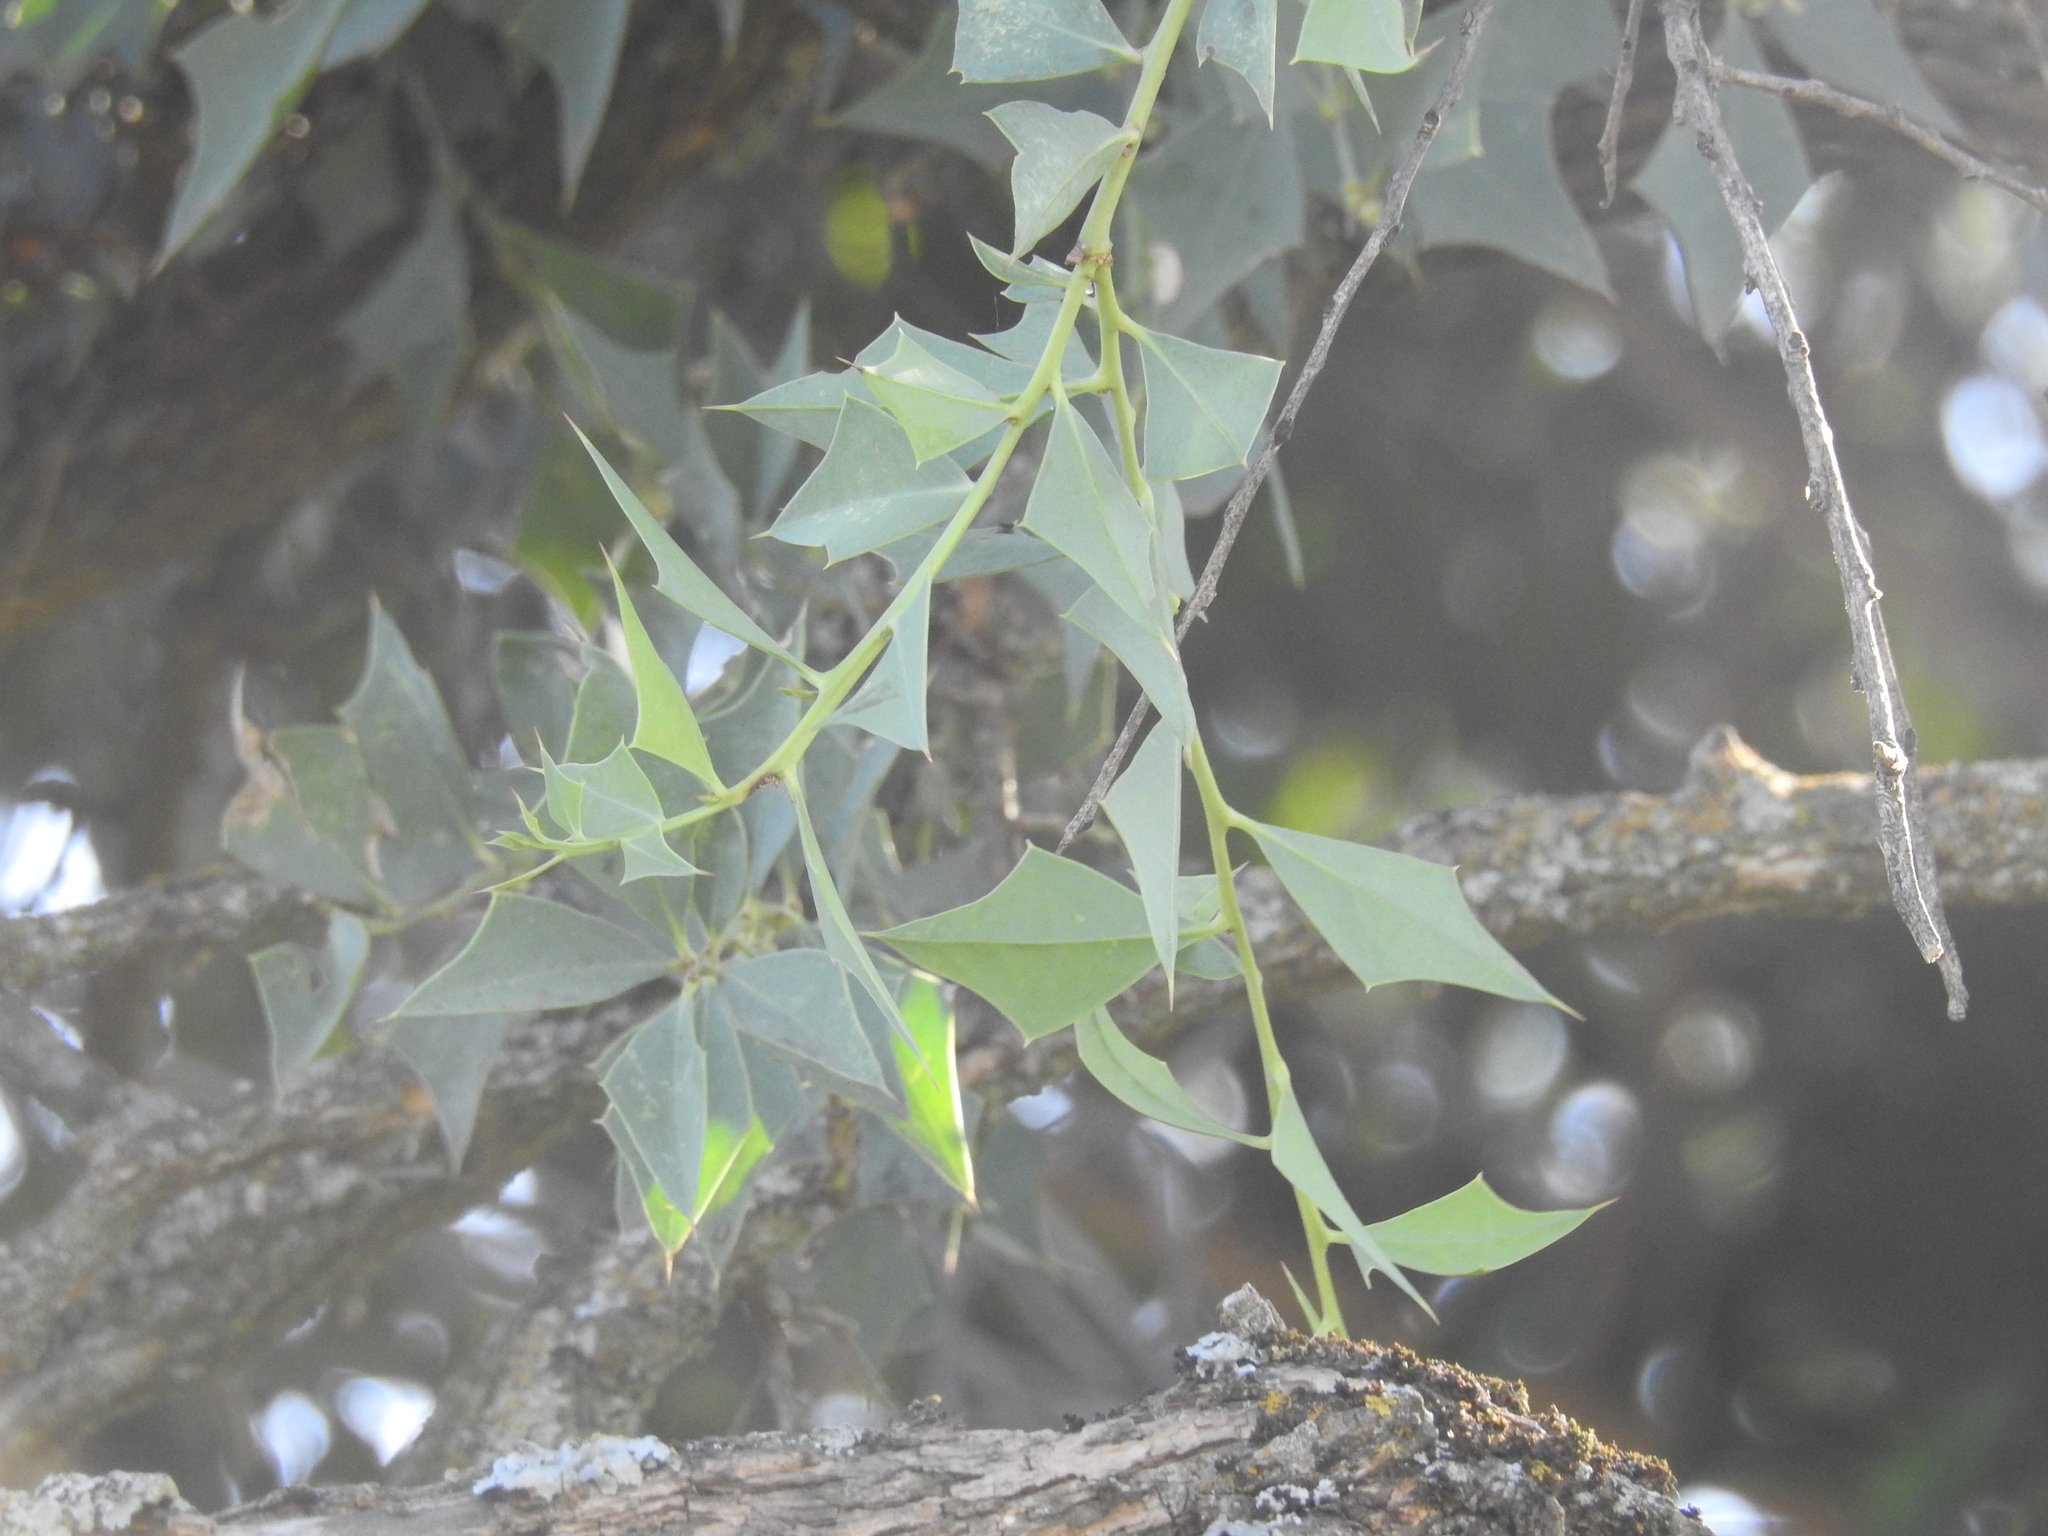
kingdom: Plantae
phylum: Tracheophyta
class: Magnoliopsida
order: Santalales
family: Cervantesiaceae
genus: Jodina
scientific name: Jodina rhombifolia
